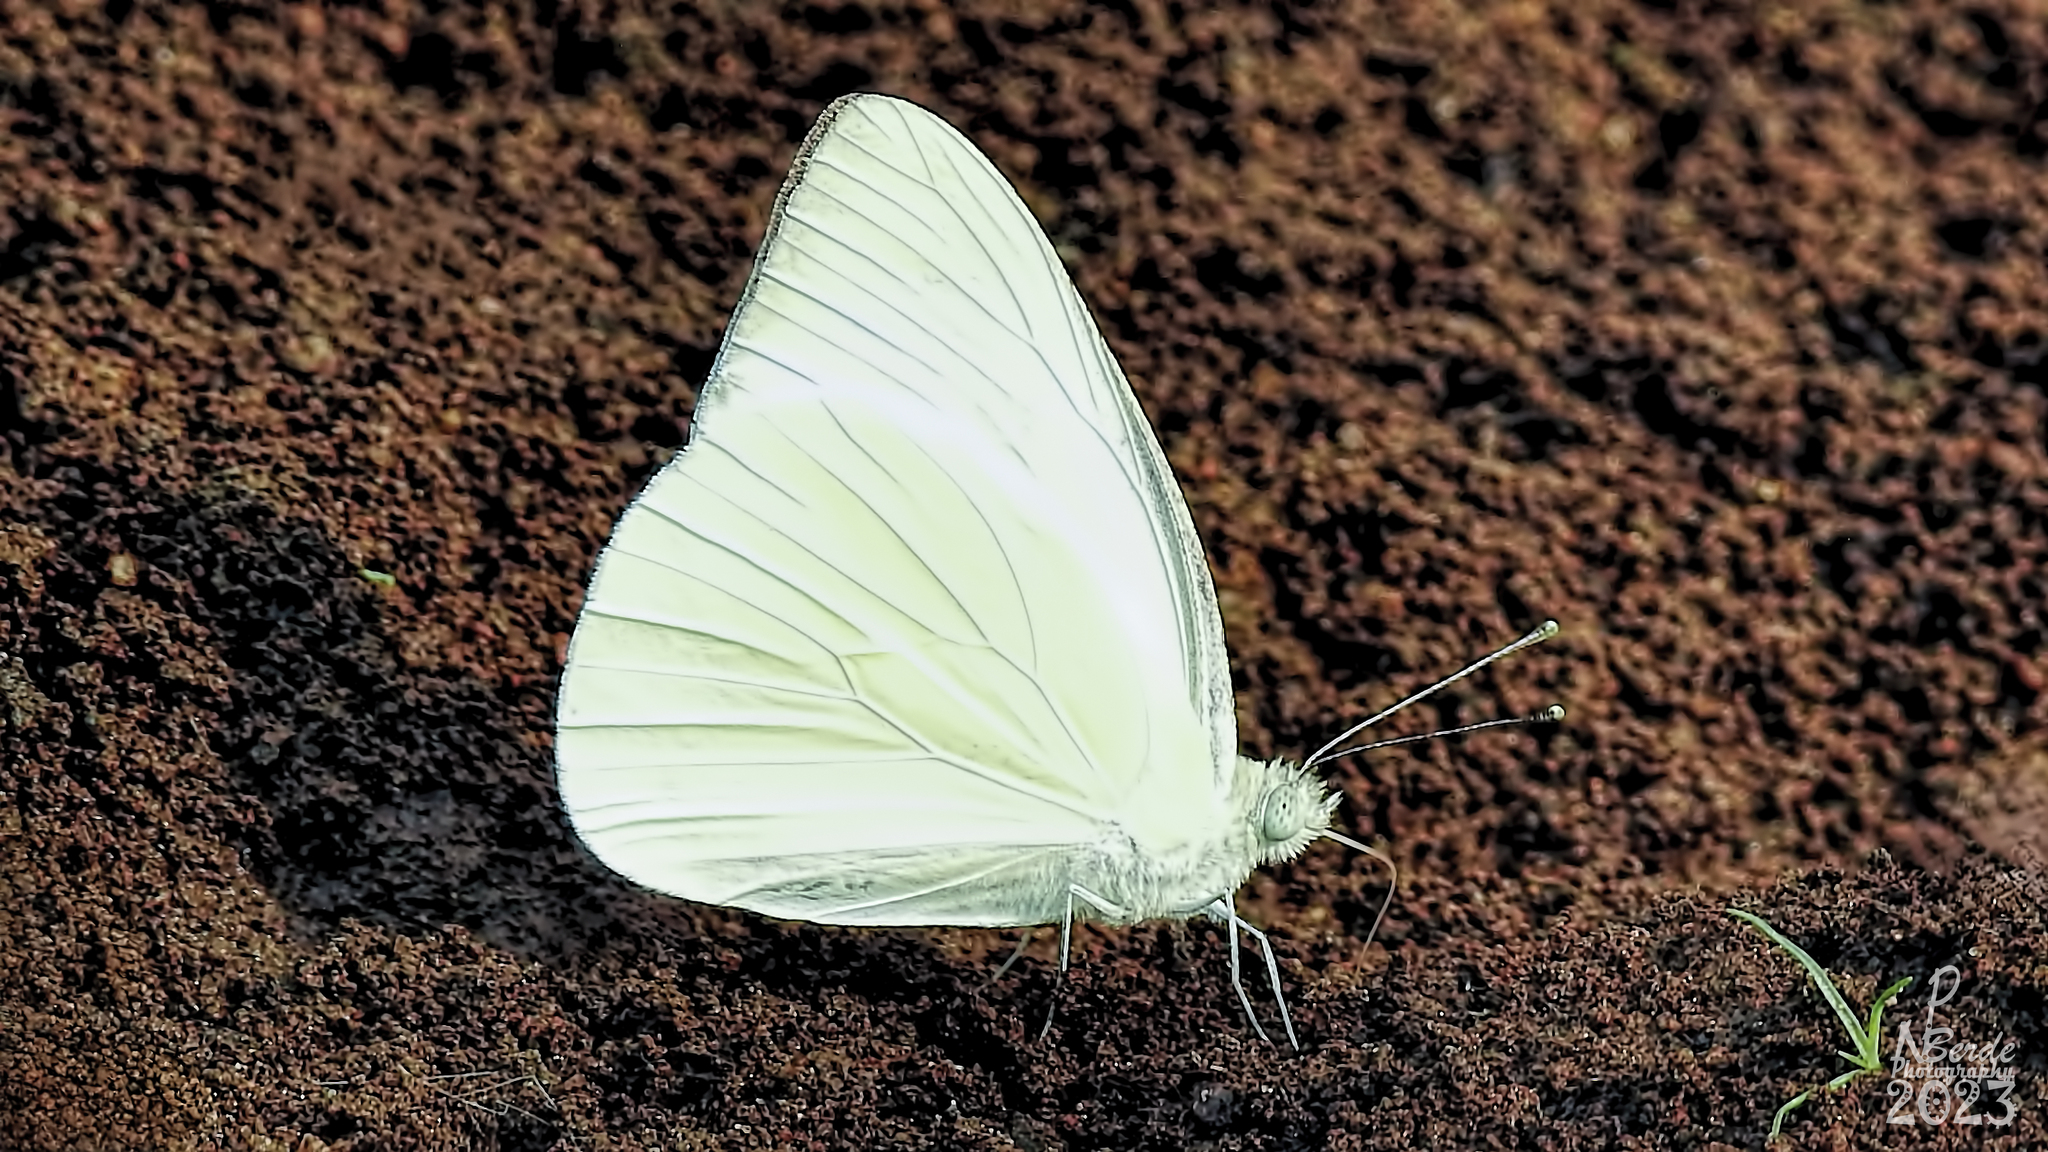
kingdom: Animalia
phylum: Arthropoda
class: Insecta
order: Lepidoptera
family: Pieridae
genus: Appias
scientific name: Appias albina
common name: Common albatross
